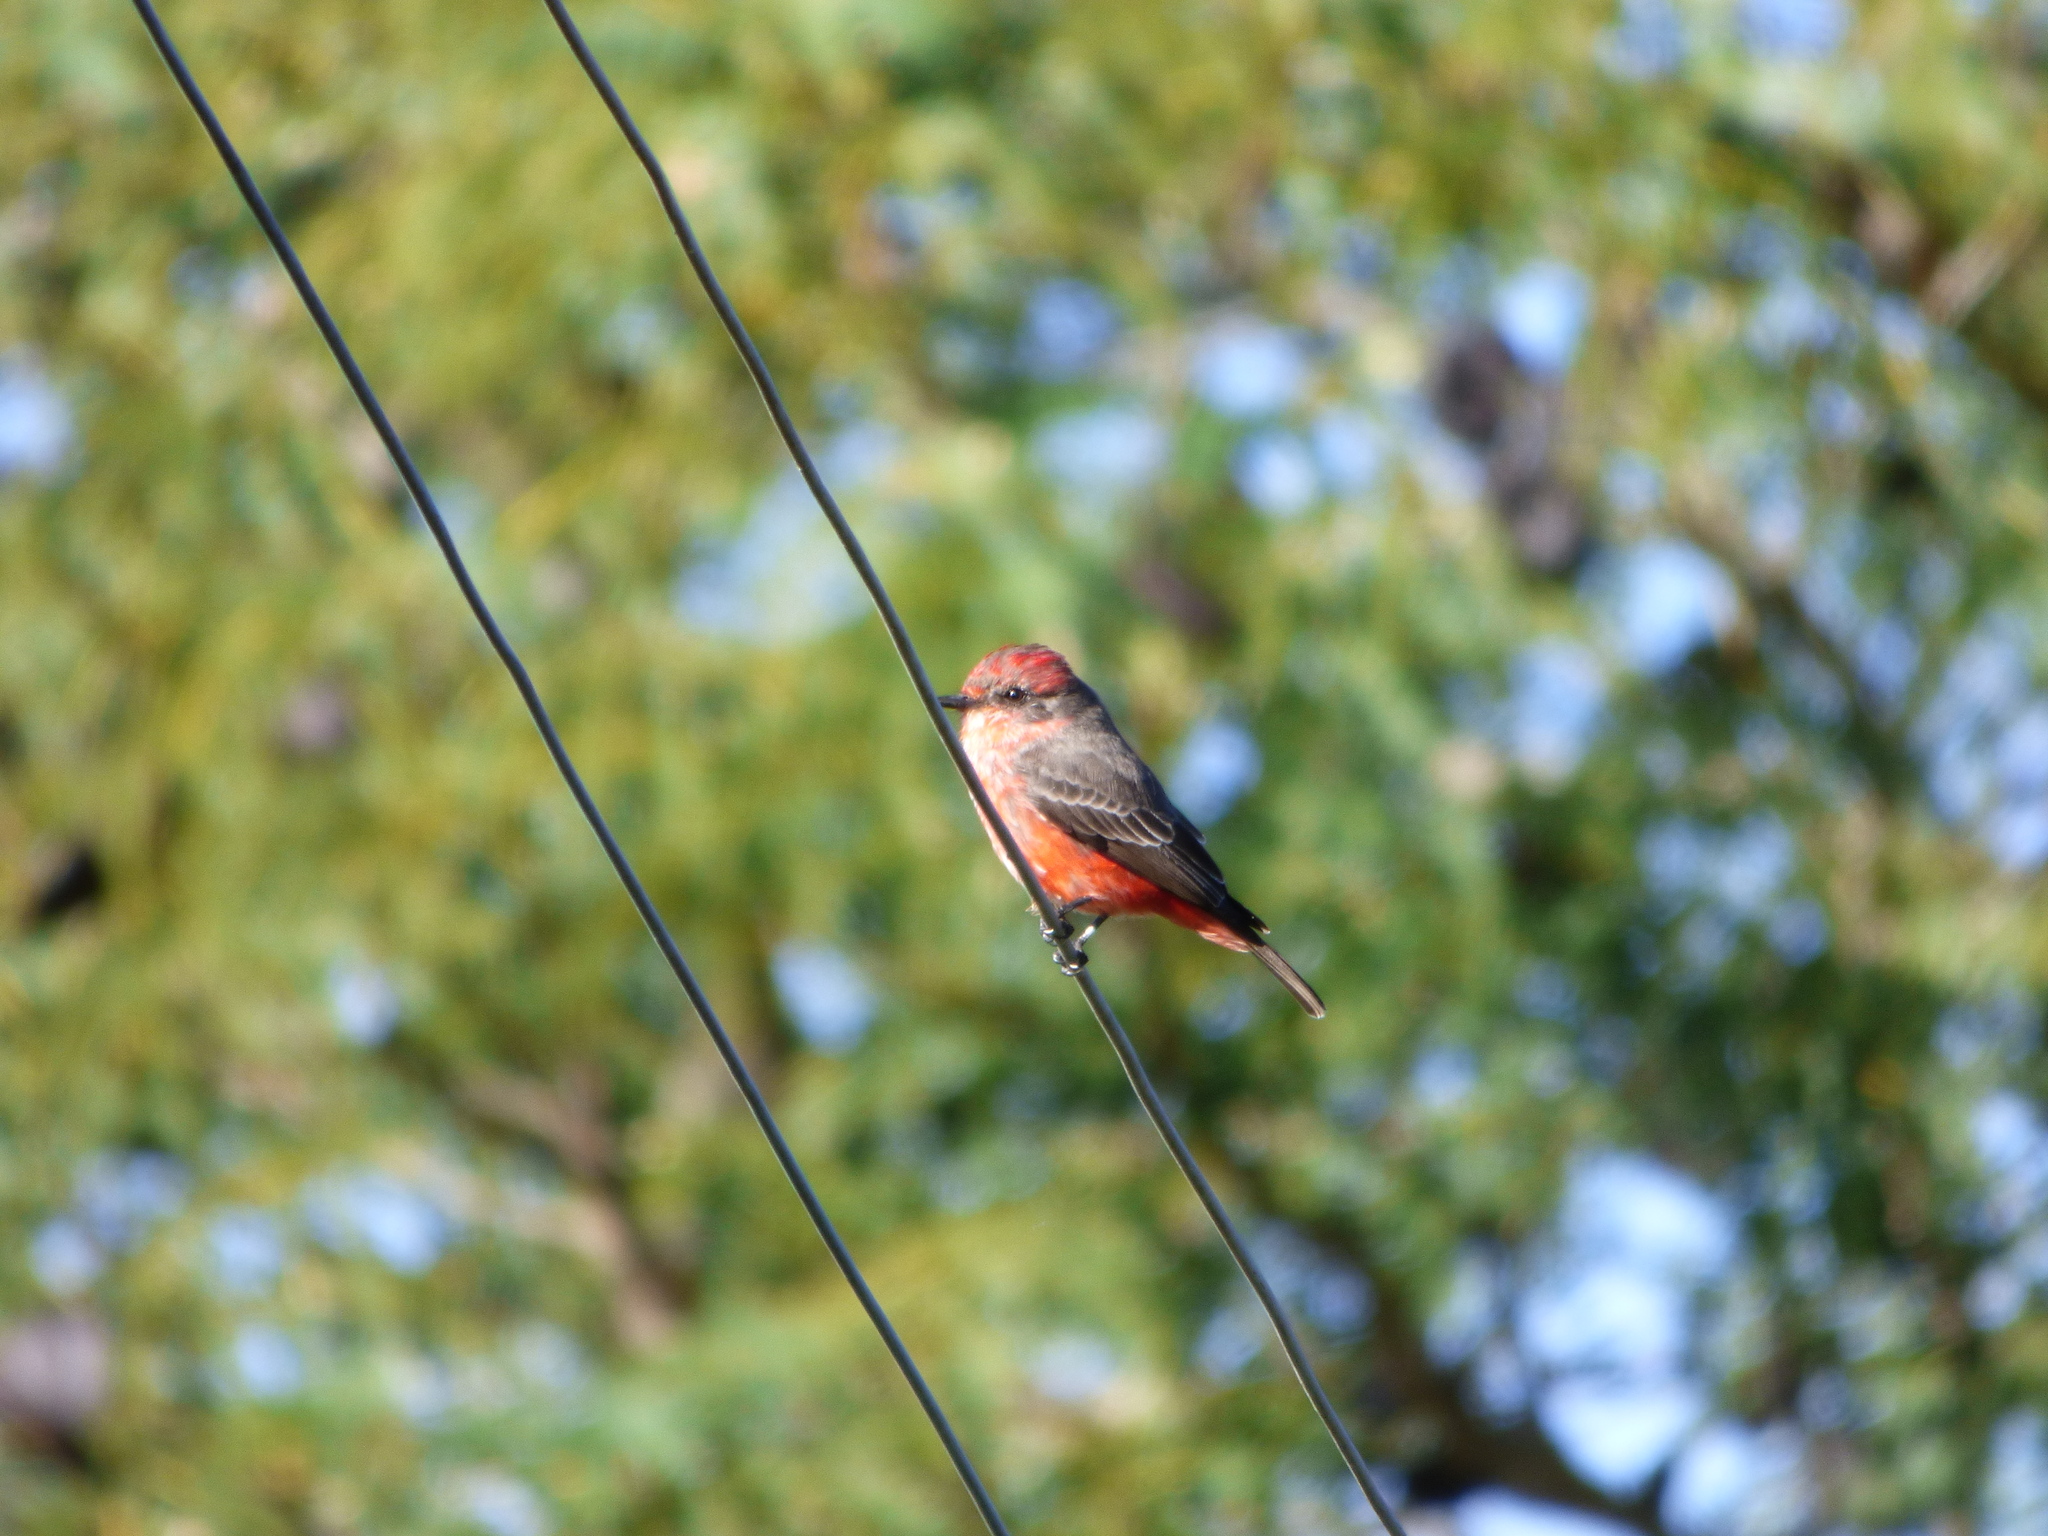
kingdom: Animalia
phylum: Chordata
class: Aves
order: Passeriformes
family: Tyrannidae
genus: Pyrocephalus
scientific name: Pyrocephalus rubinus
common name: Vermilion flycatcher
